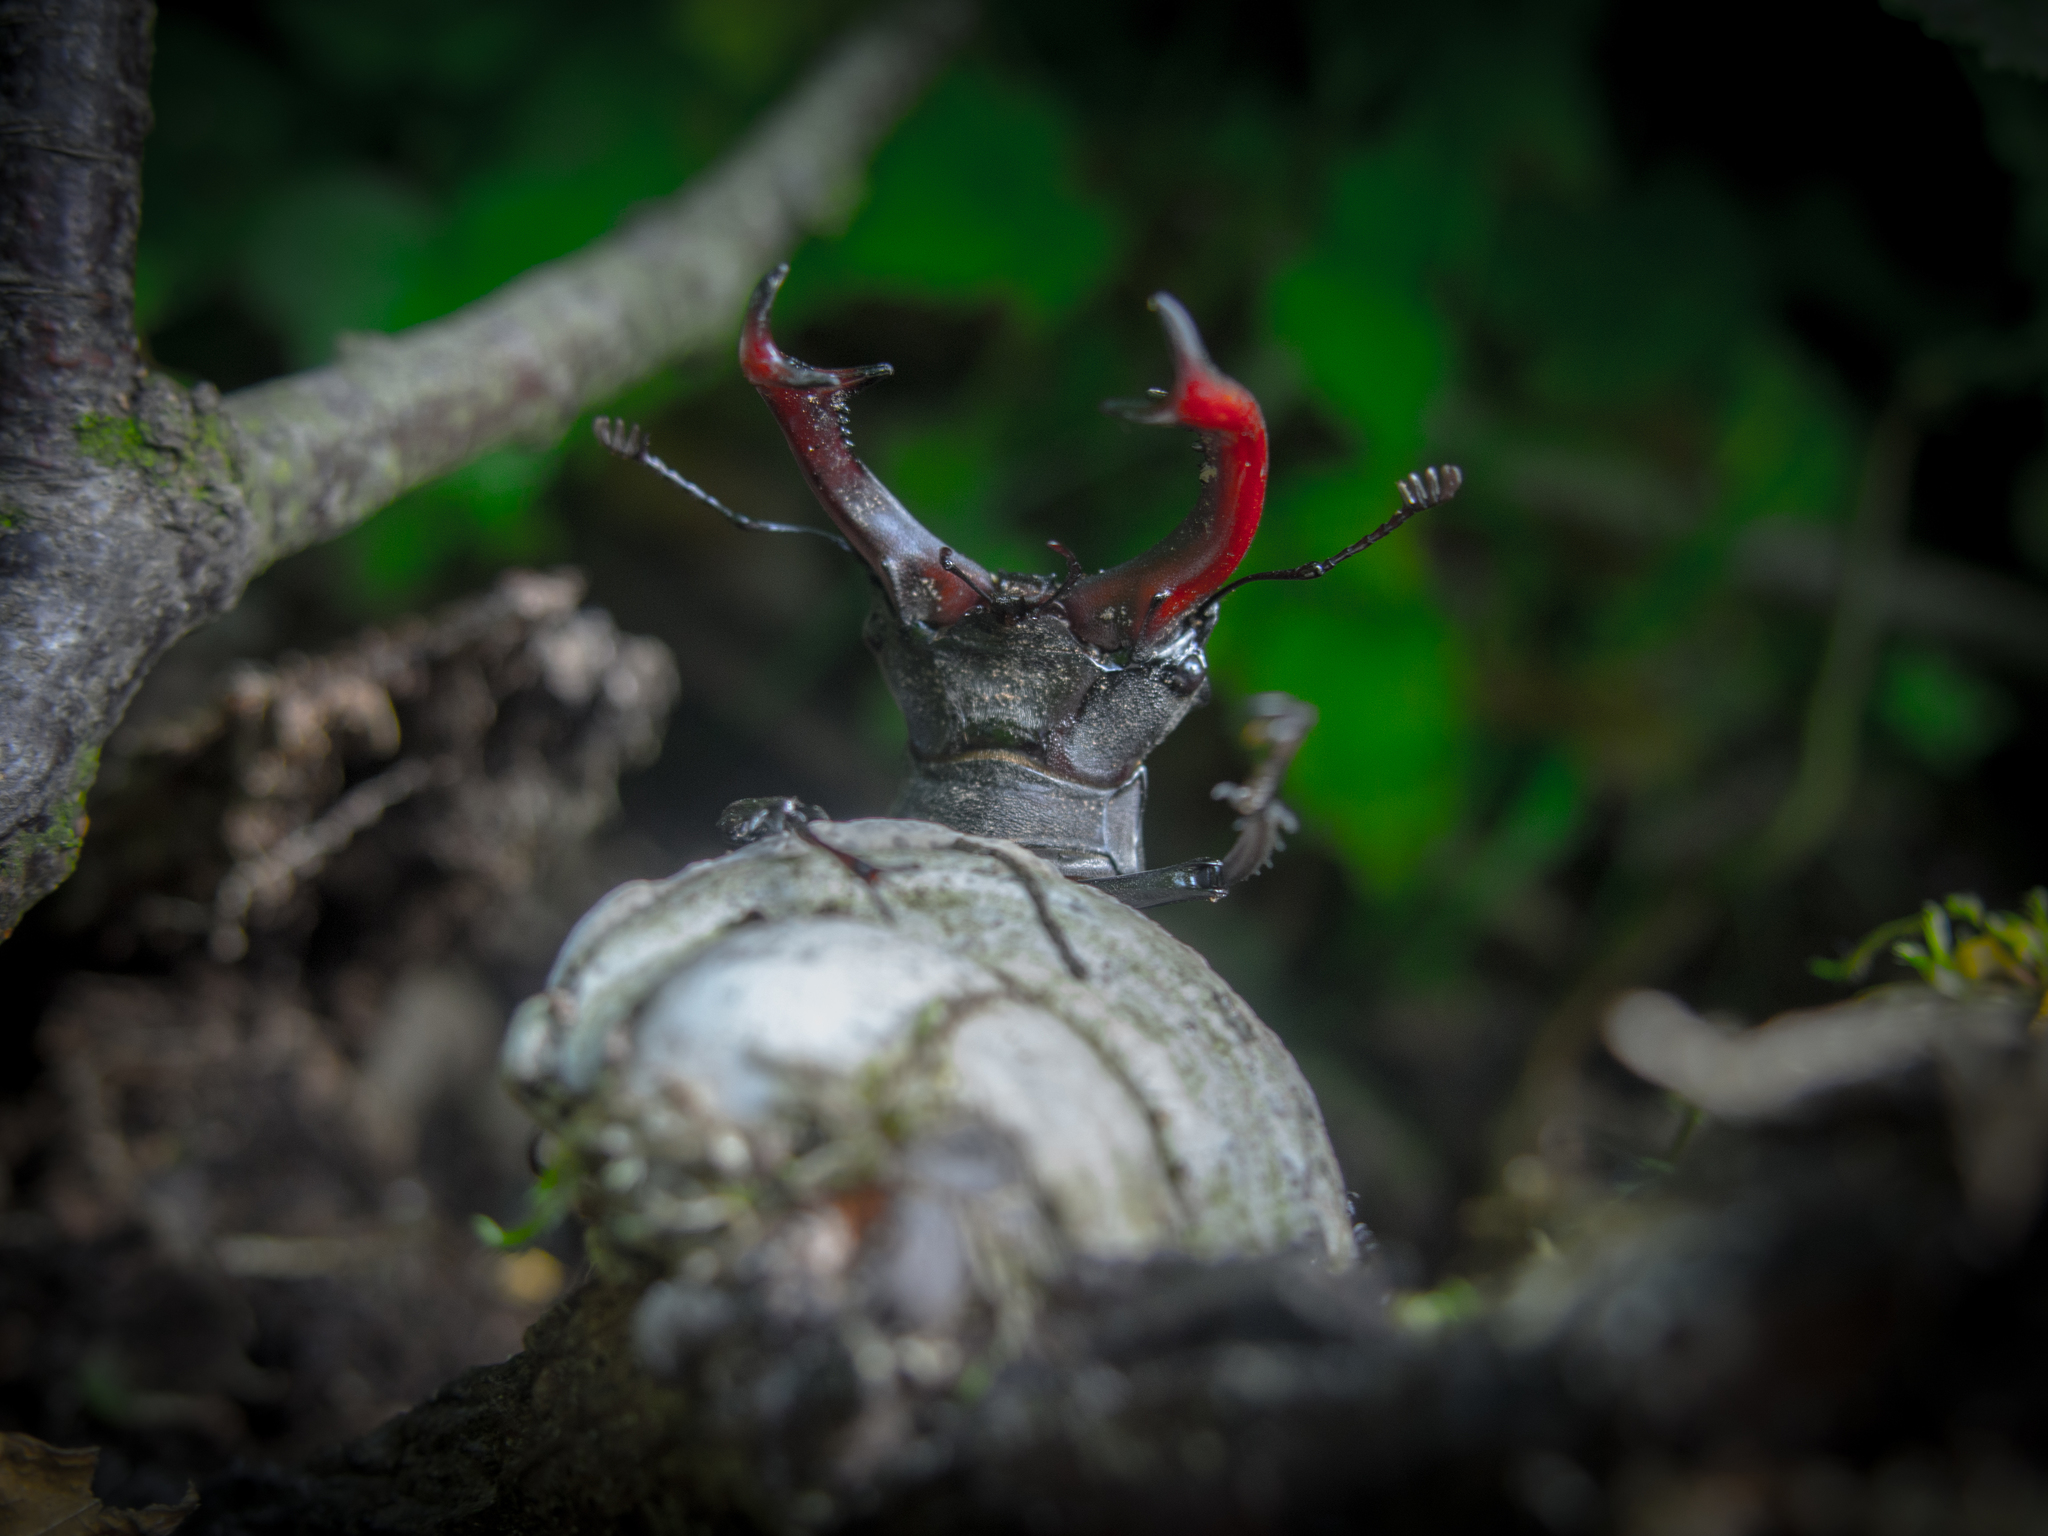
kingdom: Animalia
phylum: Arthropoda
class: Insecta
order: Coleoptera
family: Lucanidae
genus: Lucanus
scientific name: Lucanus cervus
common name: Stag beetle
